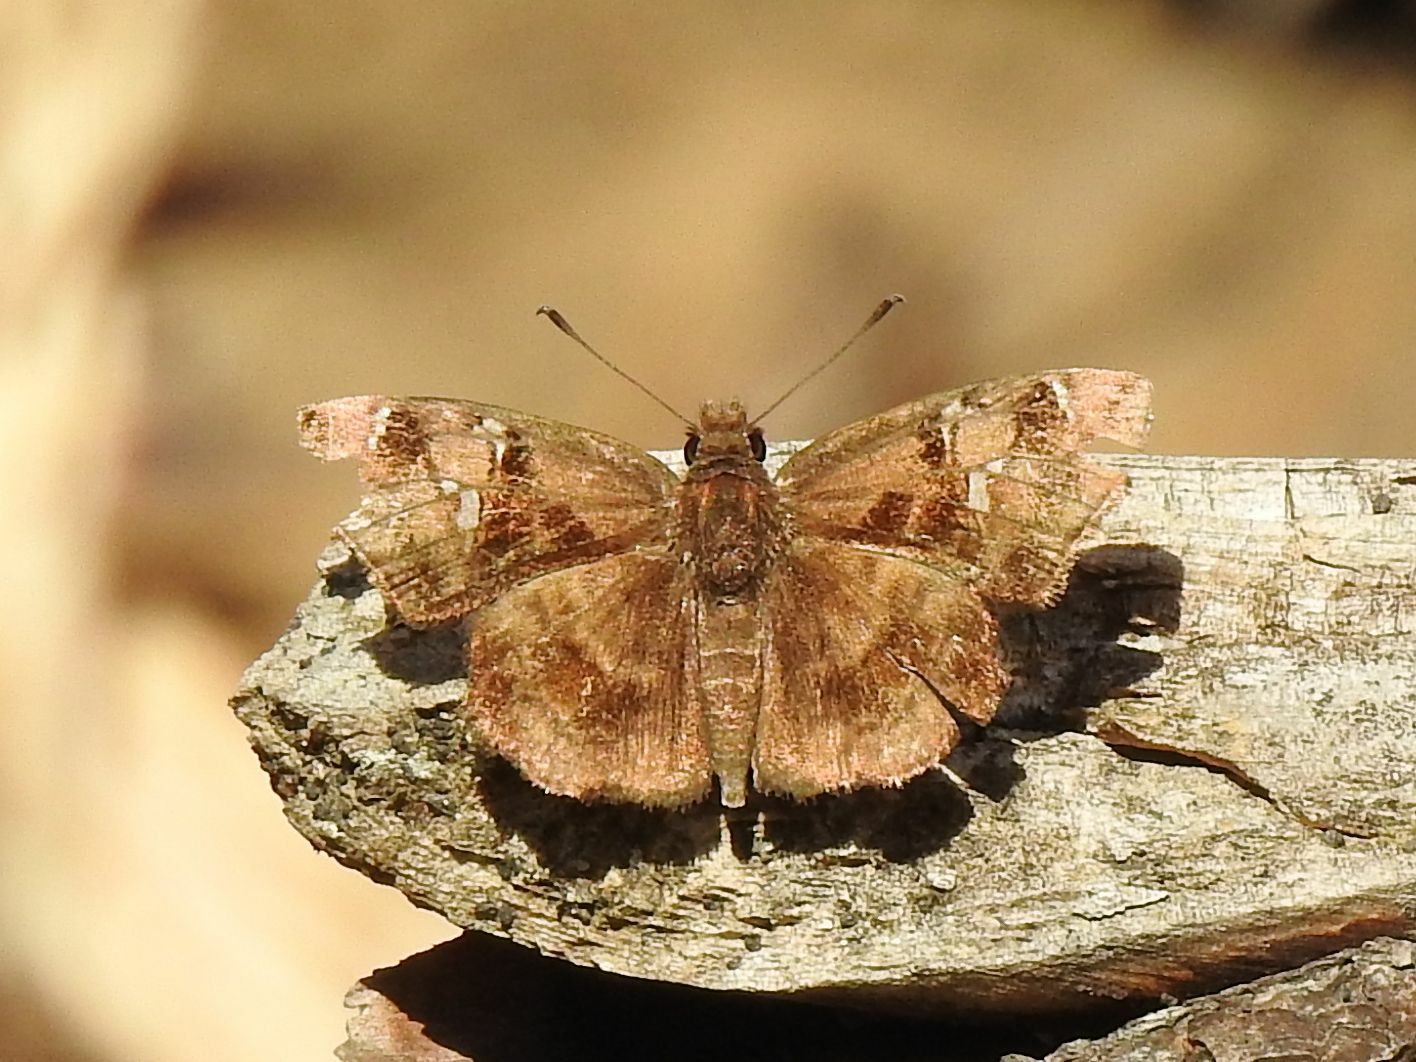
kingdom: Animalia
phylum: Arthropoda
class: Insecta
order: Lepidoptera
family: Hesperiidae
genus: Eretis
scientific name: Eretis djaelaelae
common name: Marbled elf
